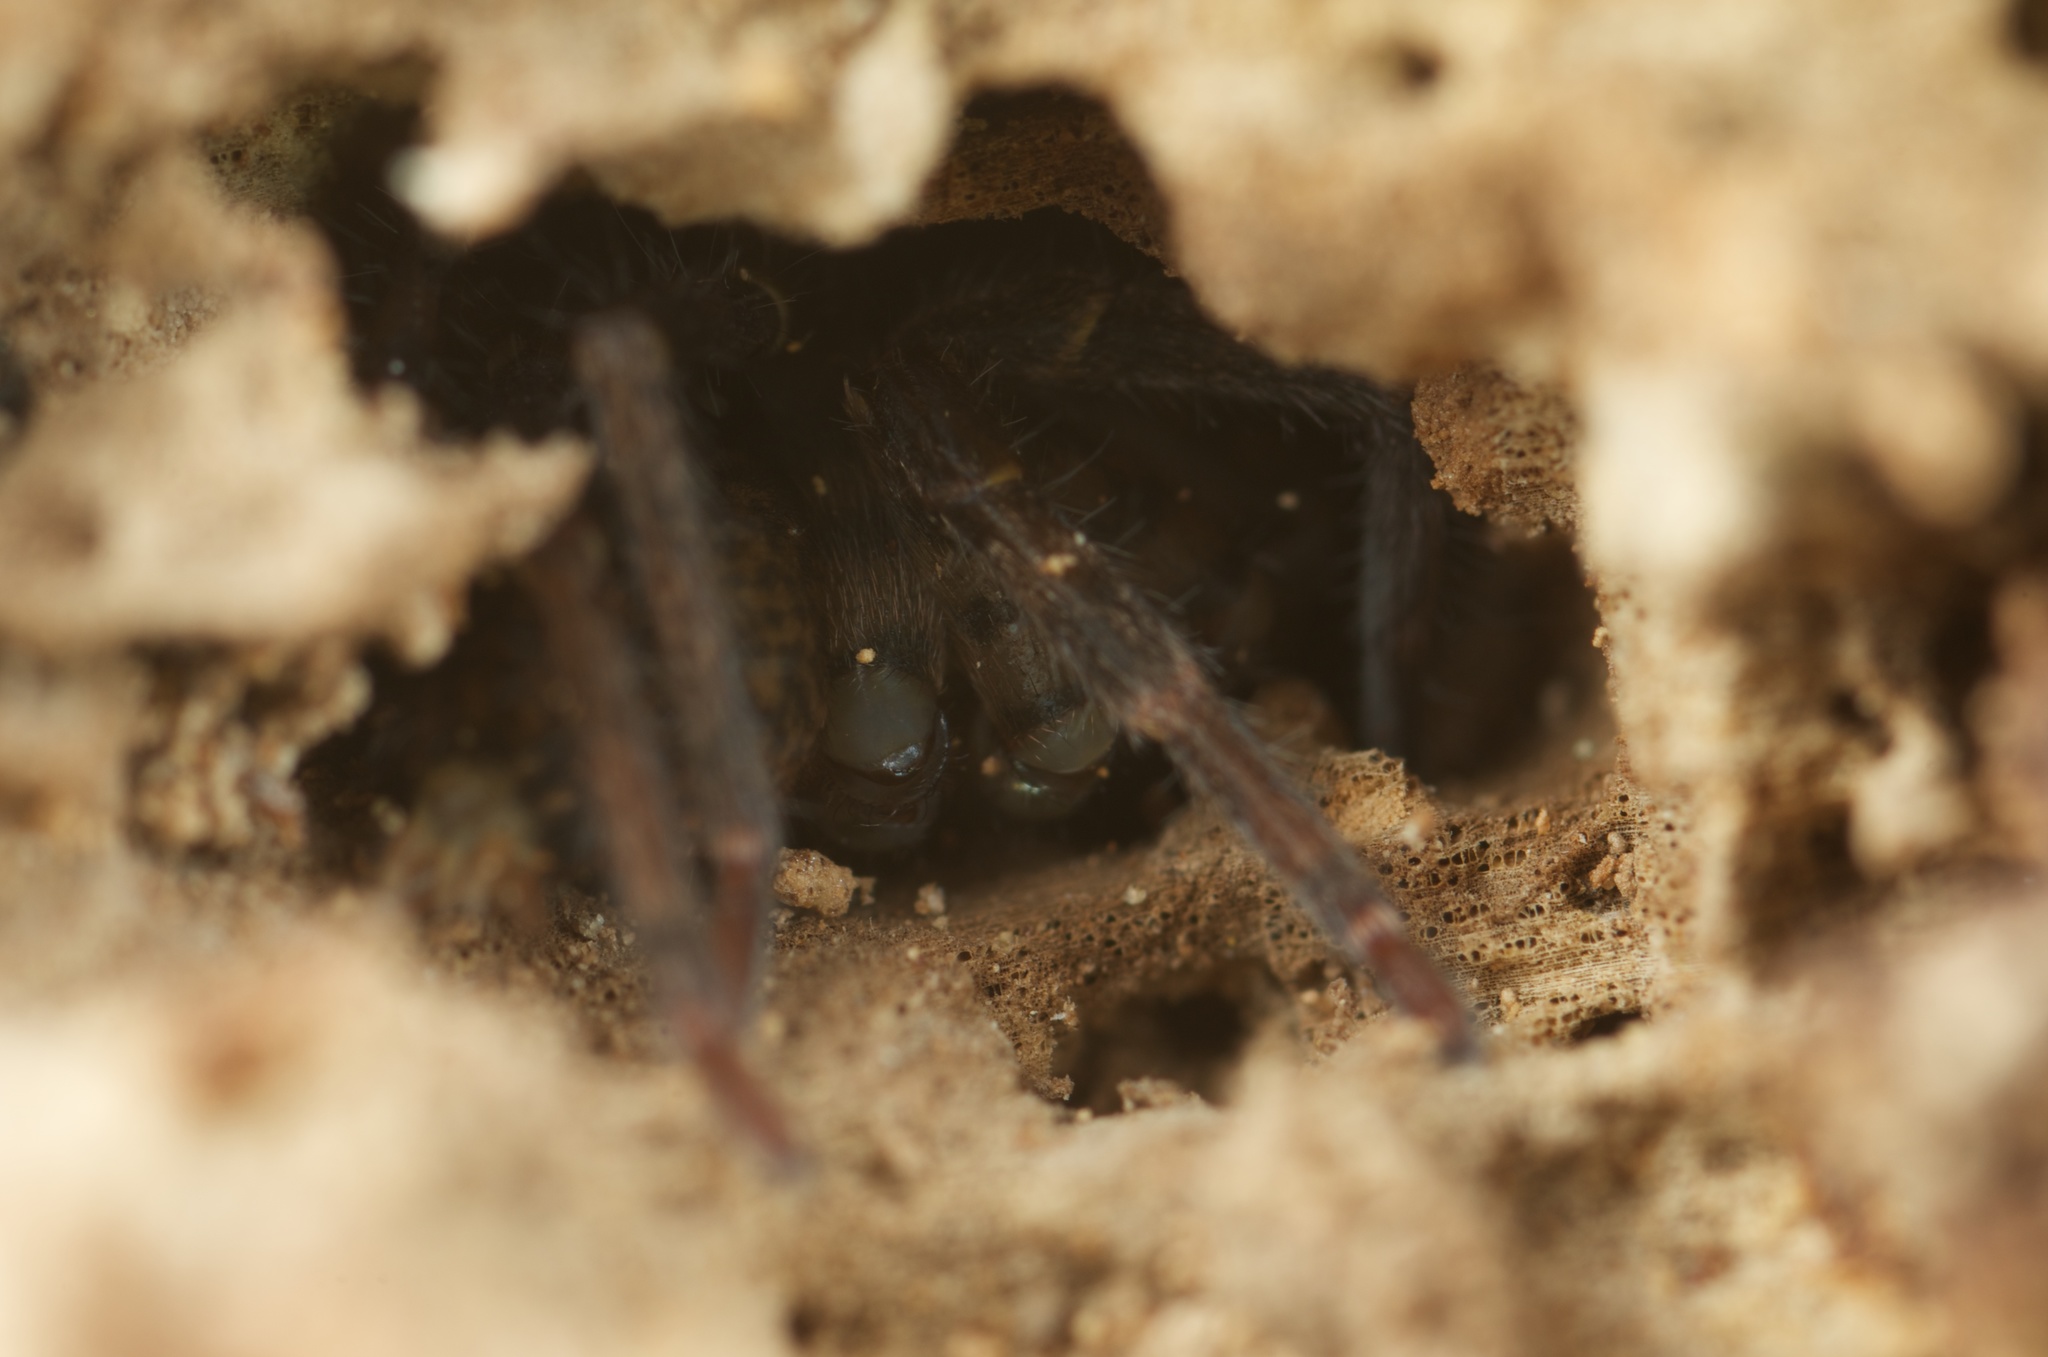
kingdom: Animalia
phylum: Arthropoda
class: Arachnida
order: Araneae
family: Zoropsidae
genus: Uliodon
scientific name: Uliodon albopunctatus
